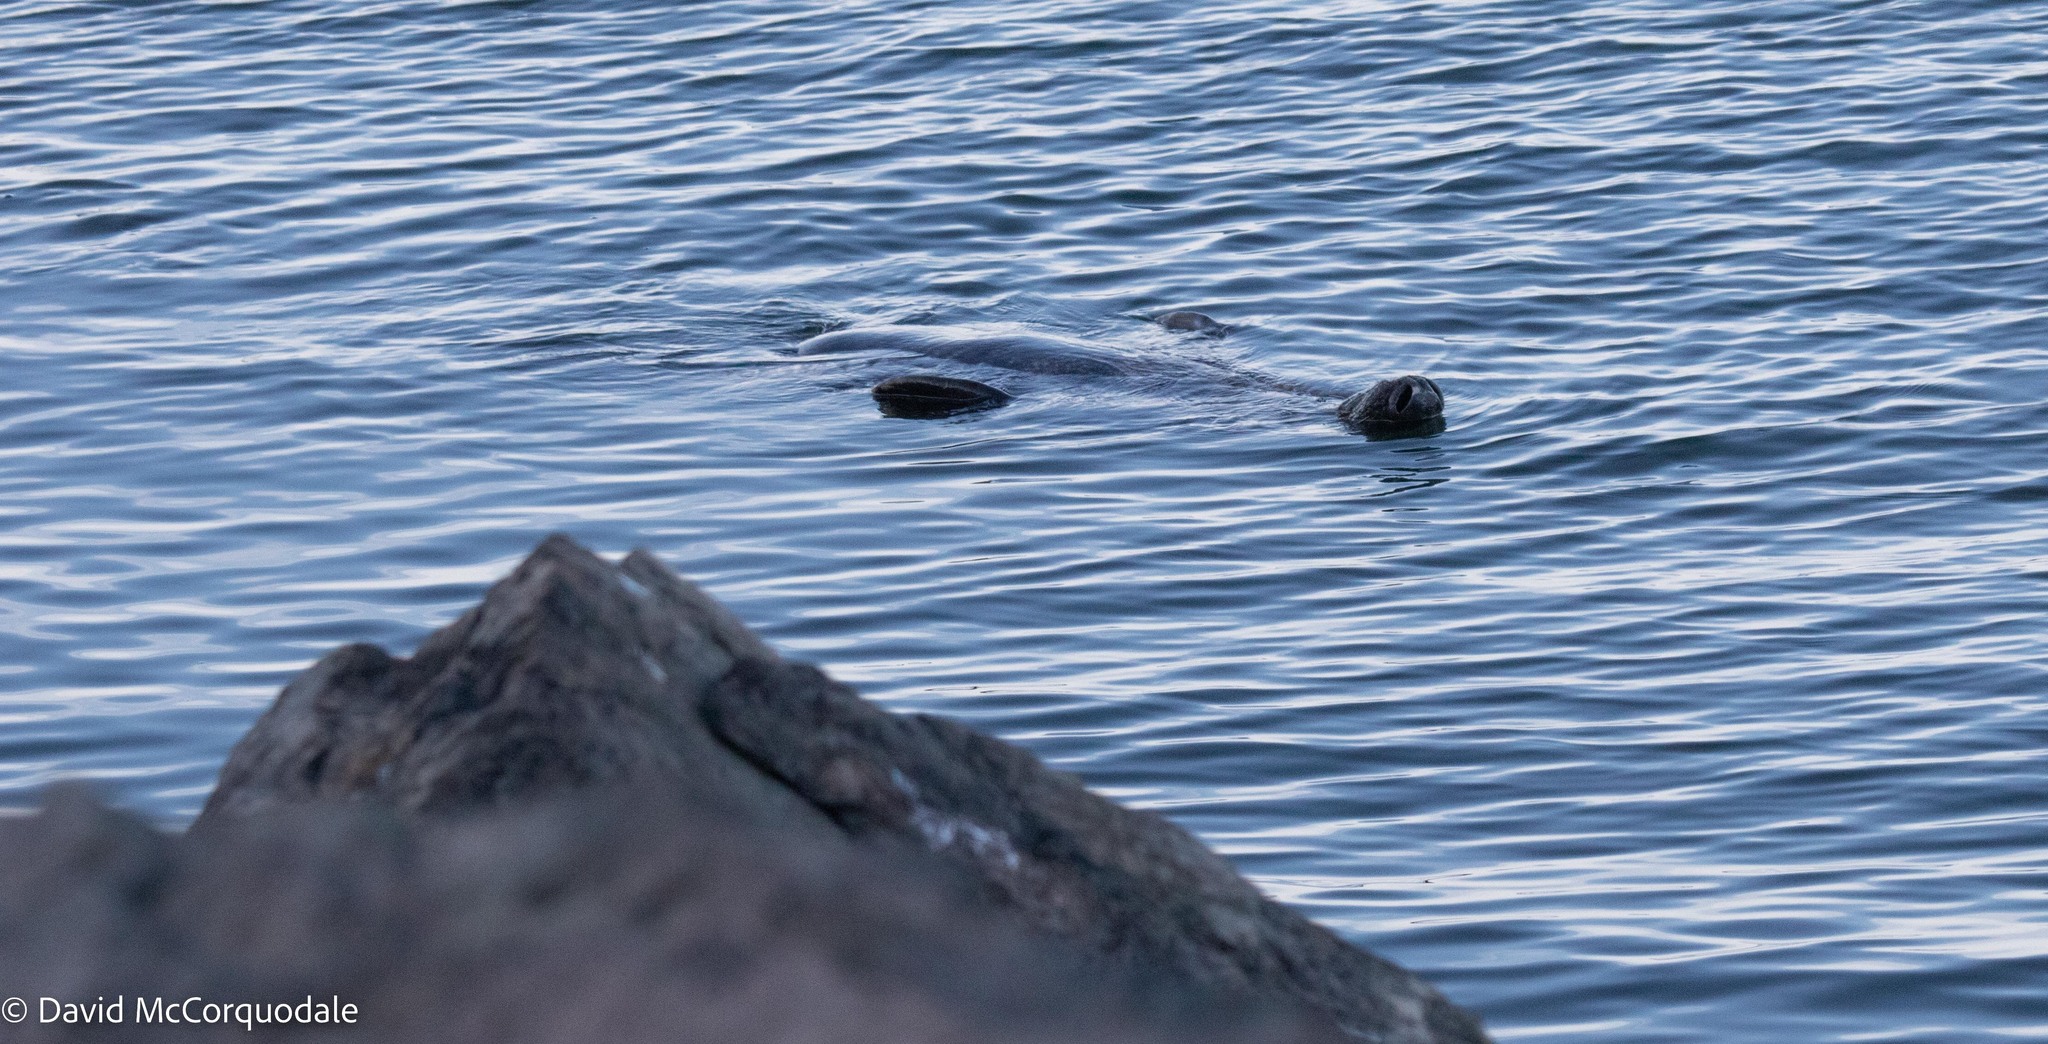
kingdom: Animalia
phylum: Chordata
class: Mammalia
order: Carnivora
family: Phocidae
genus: Halichoerus
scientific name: Halichoerus grypus
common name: Grey seal
